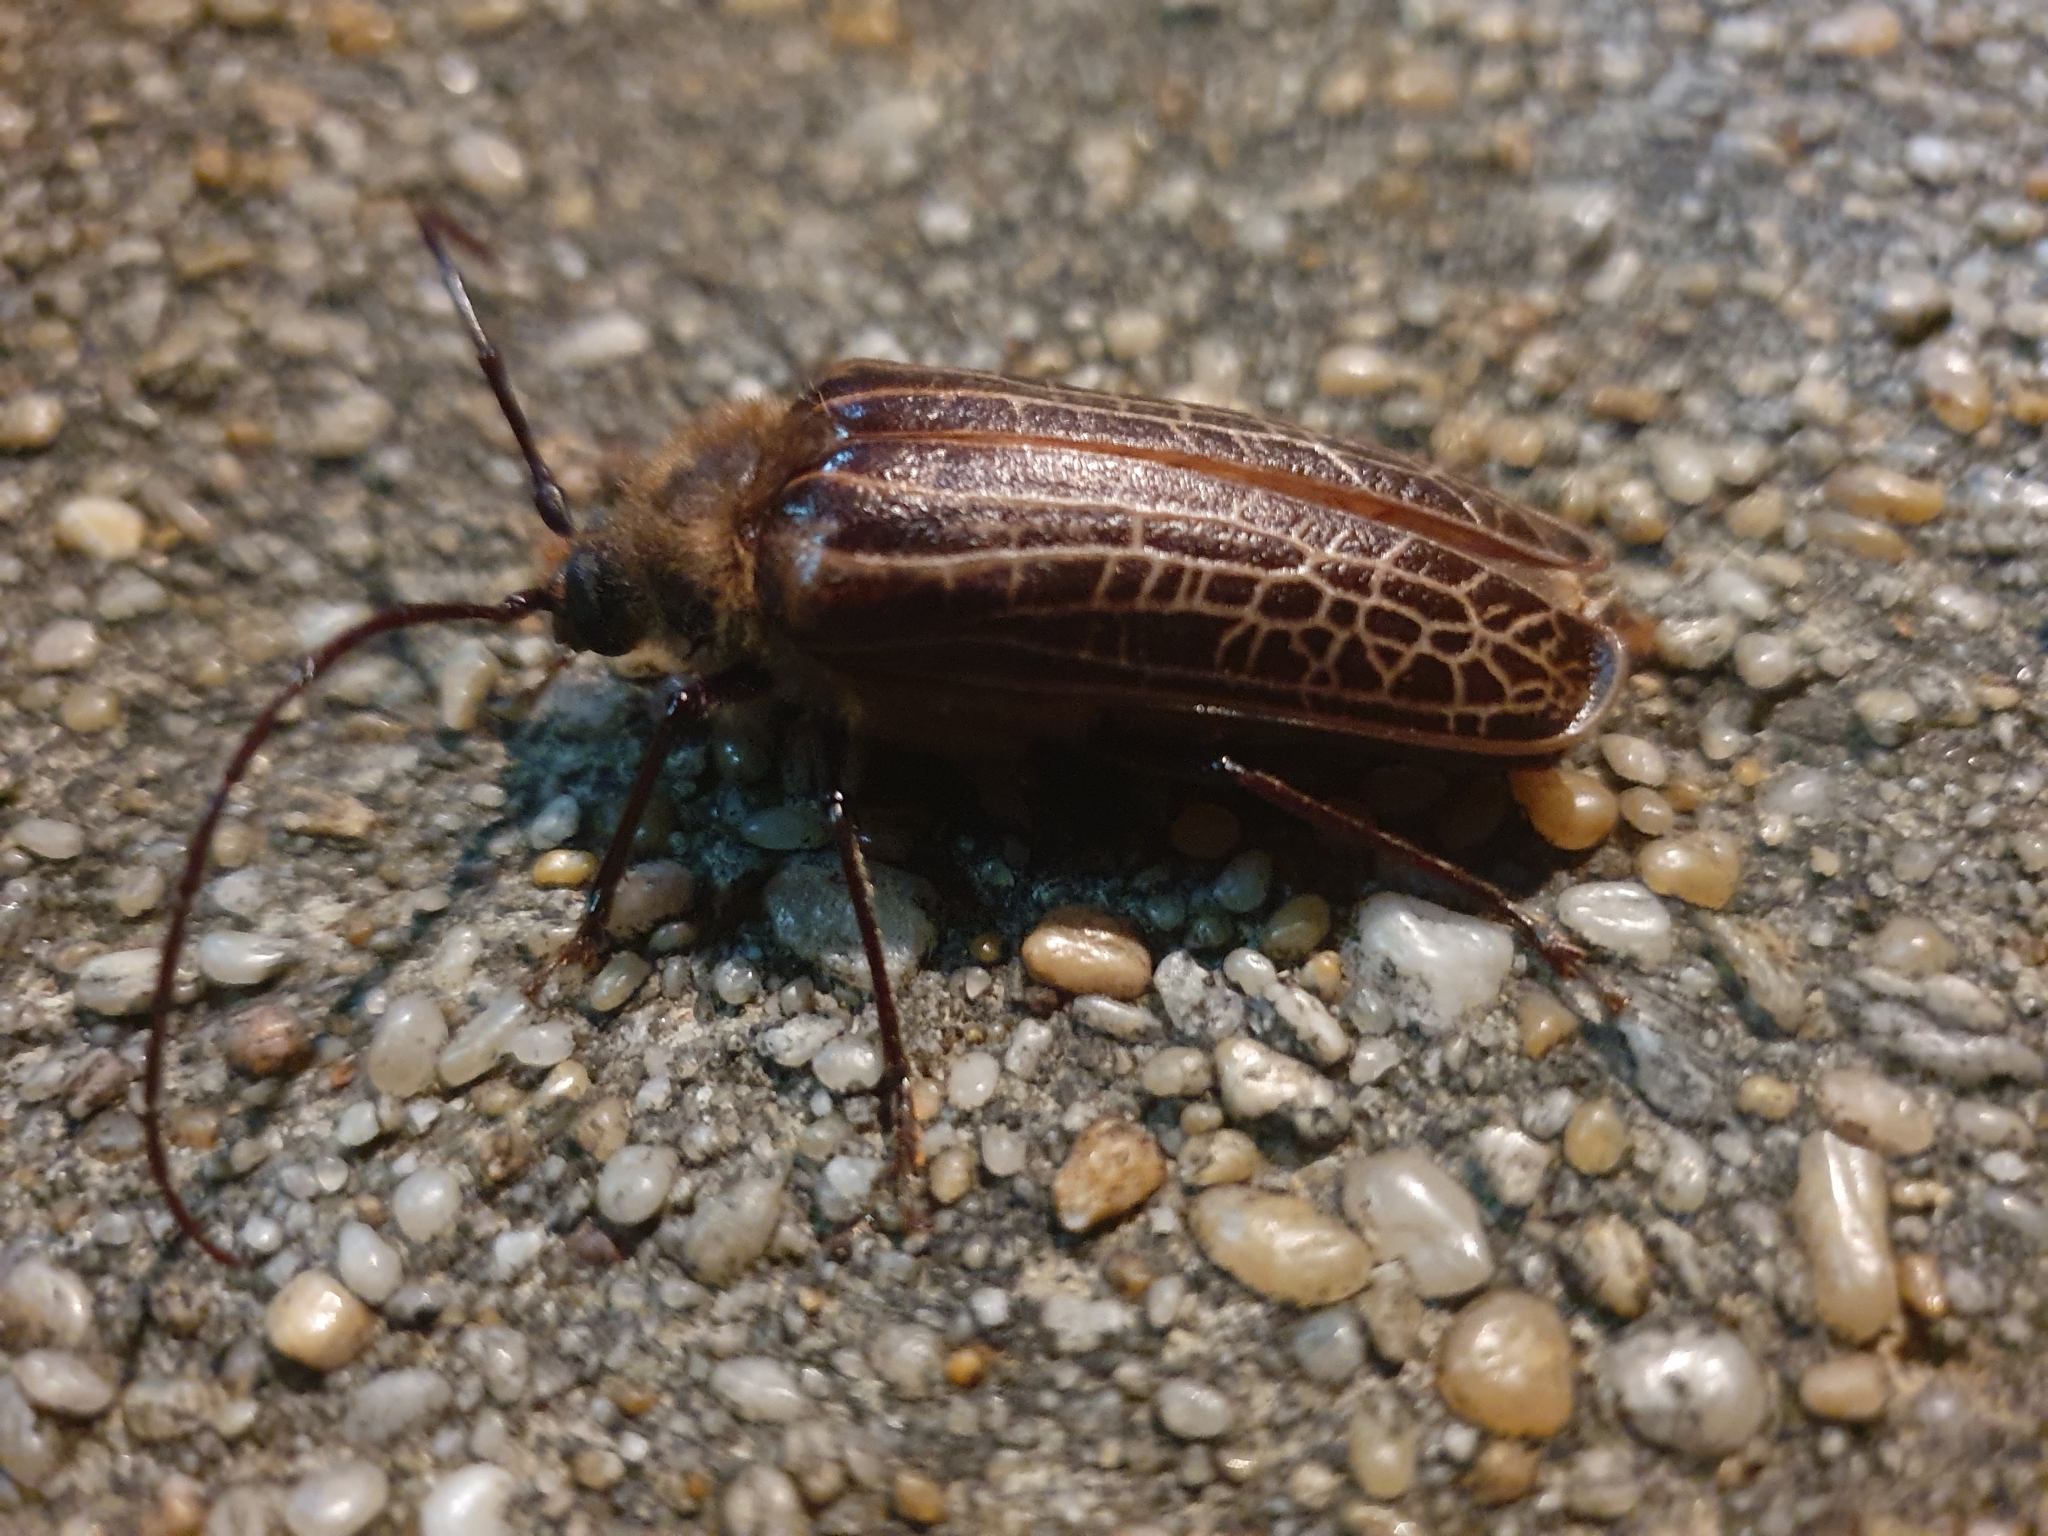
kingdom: Animalia
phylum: Arthropoda
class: Insecta
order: Coleoptera
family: Cerambycidae
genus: Prionoplus
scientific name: Prionoplus reticularis
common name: Huhu beetle
